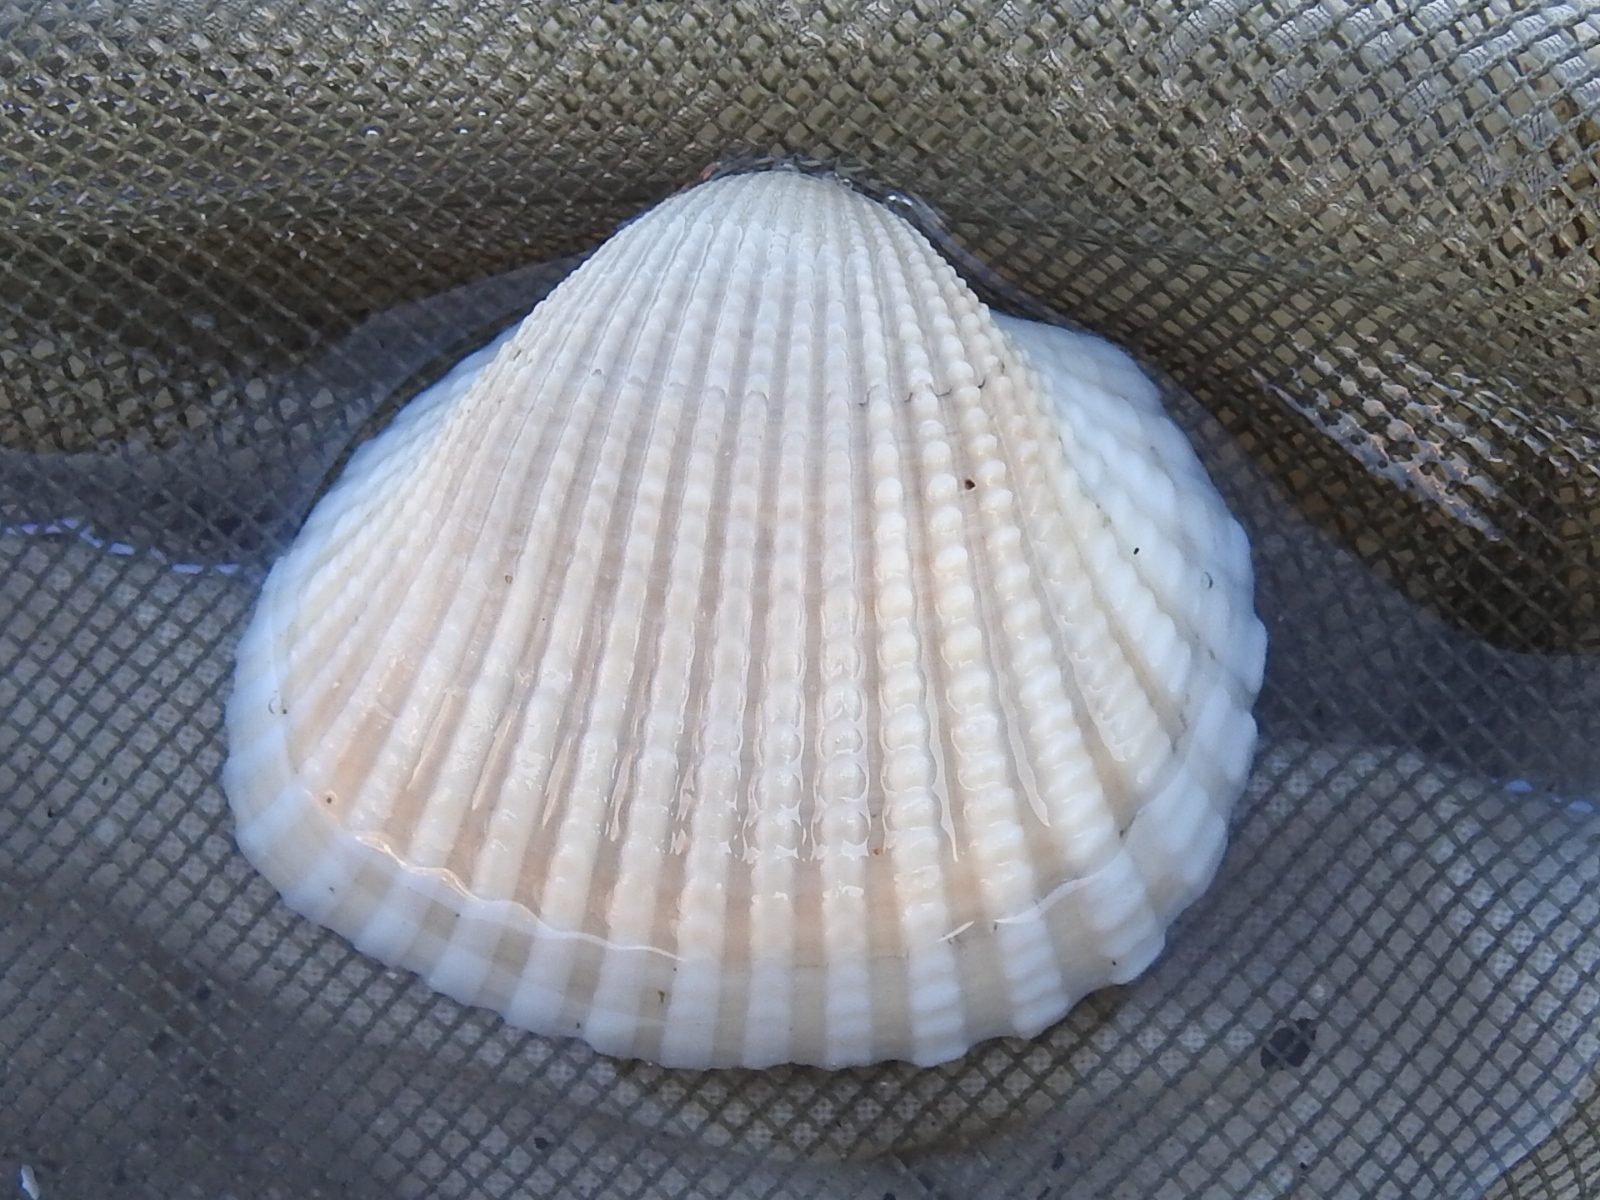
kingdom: Animalia
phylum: Mollusca
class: Bivalvia
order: Arcida
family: Arcidae
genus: Anadara
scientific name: Anadara brasiliana
